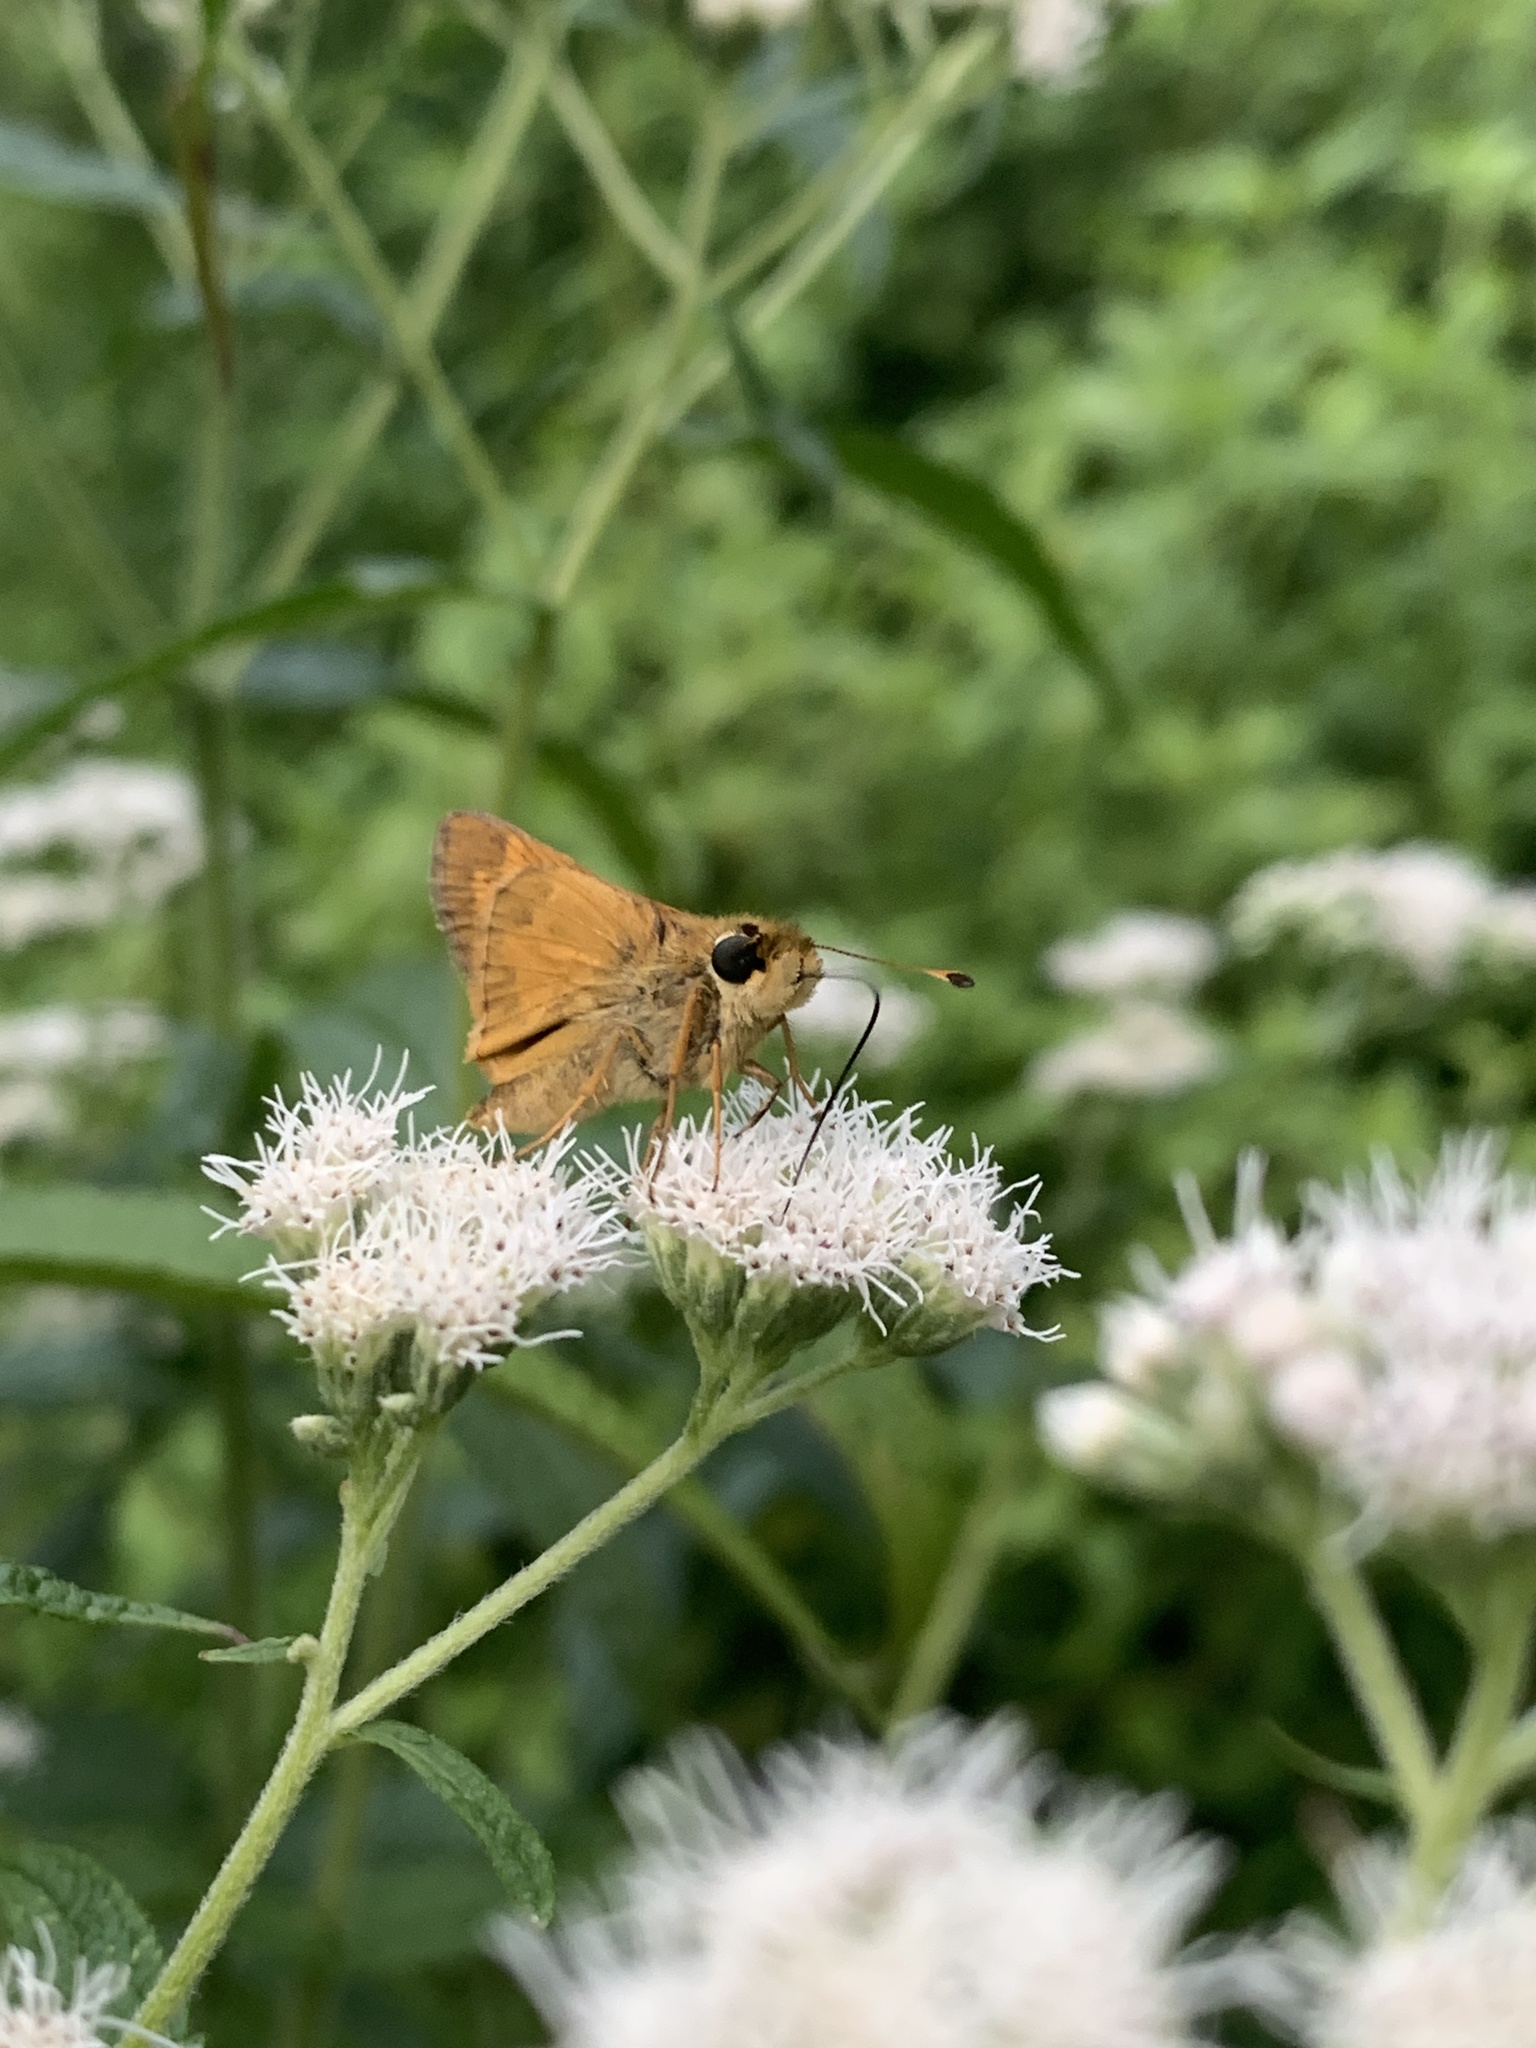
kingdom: Animalia
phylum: Arthropoda
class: Insecta
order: Lepidoptera
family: Hesperiidae
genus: Atalopedes
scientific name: Atalopedes
